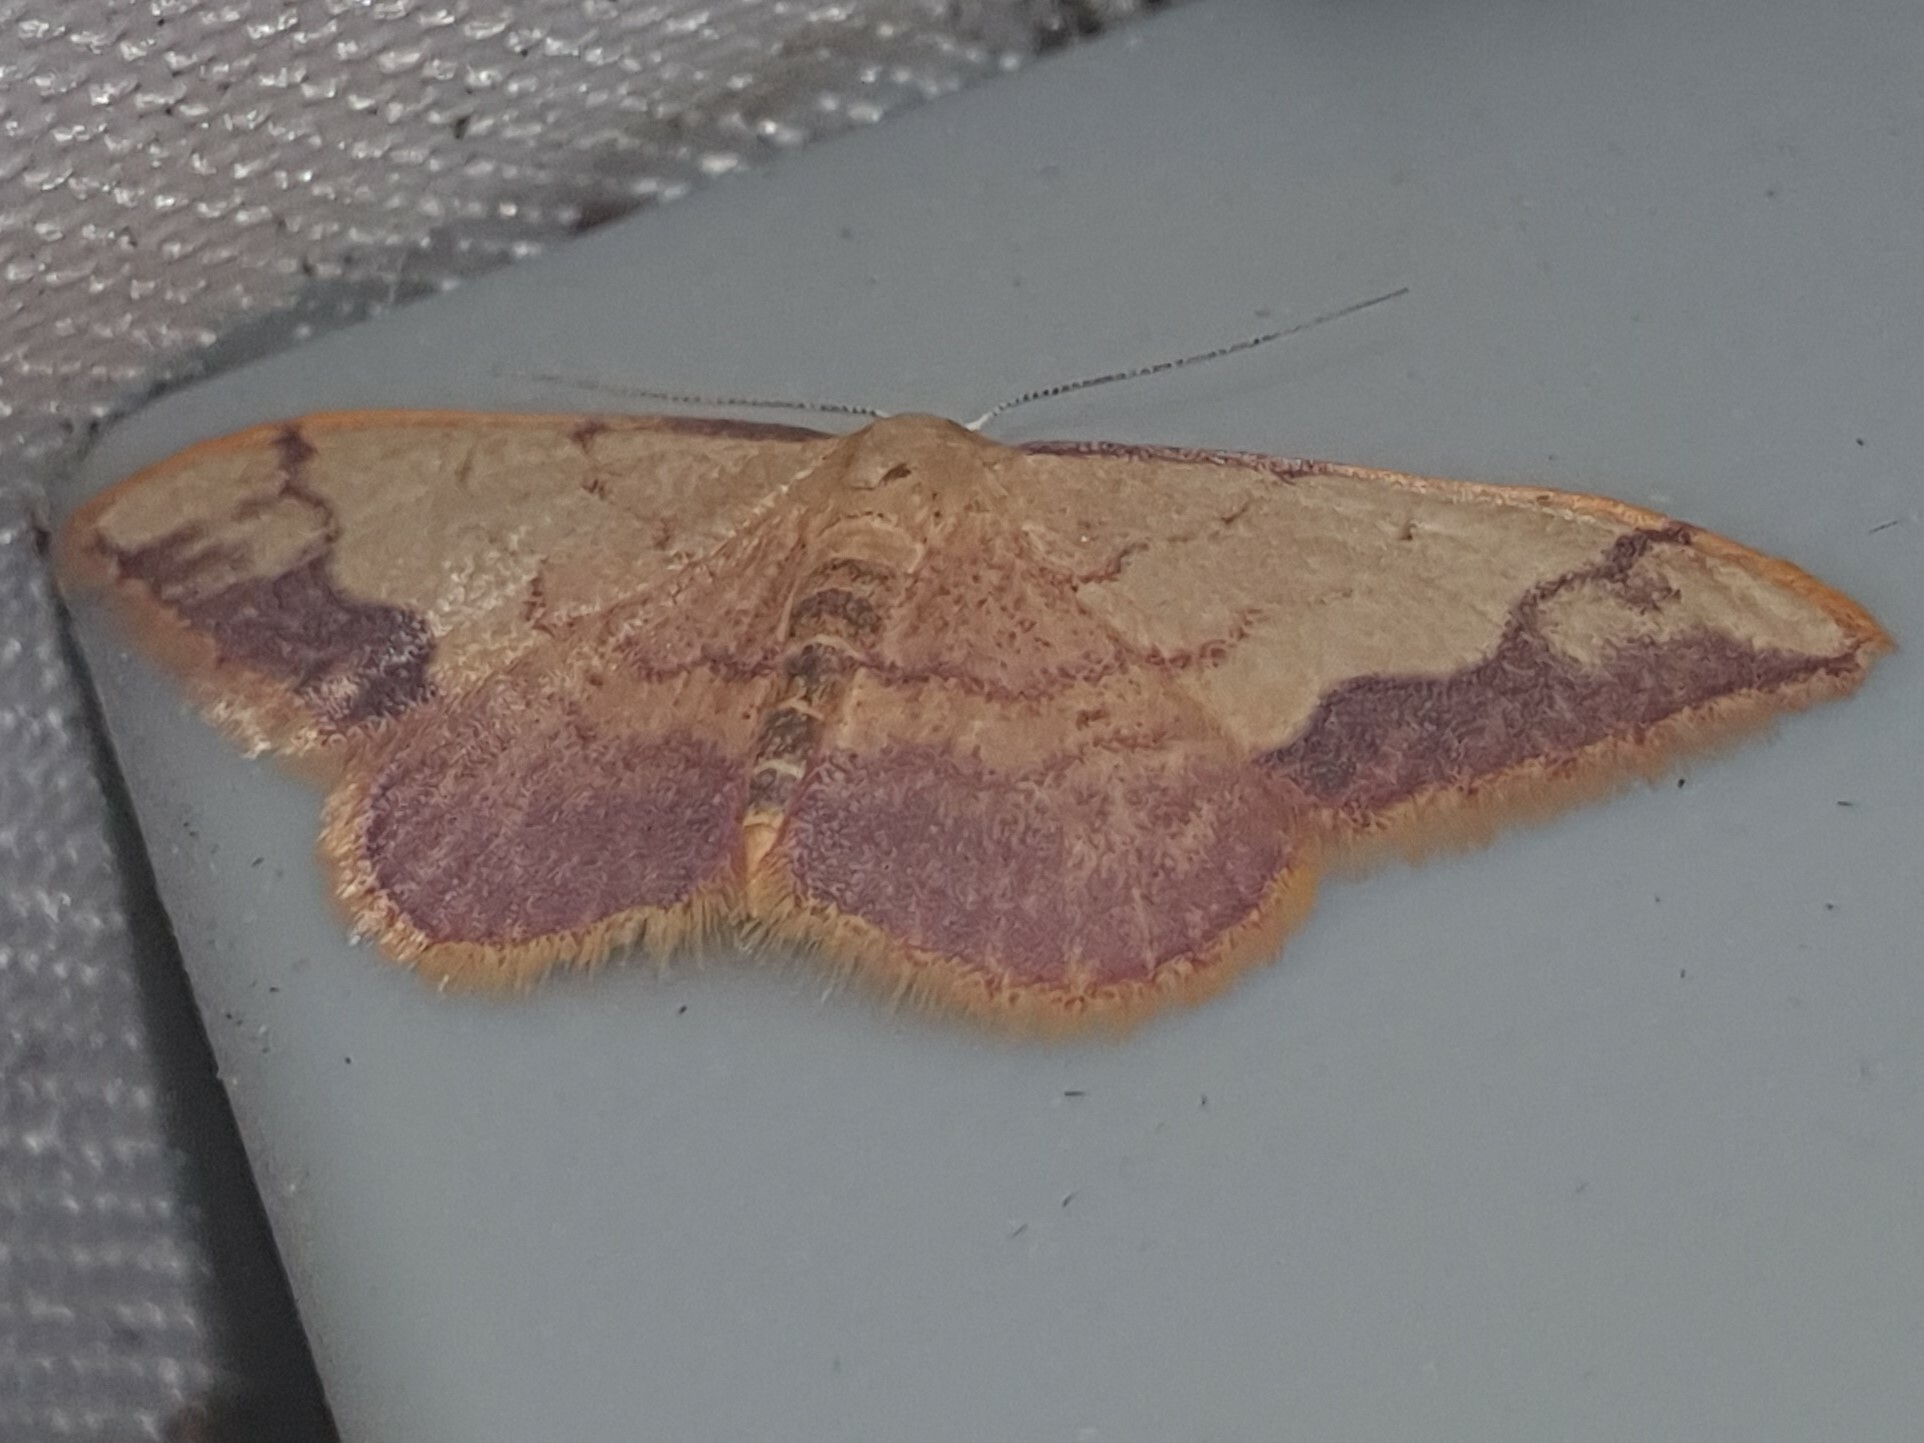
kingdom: Animalia
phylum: Arthropoda
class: Insecta
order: Lepidoptera
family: Geometridae
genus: Idaea
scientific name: Idaea ostrinaria
